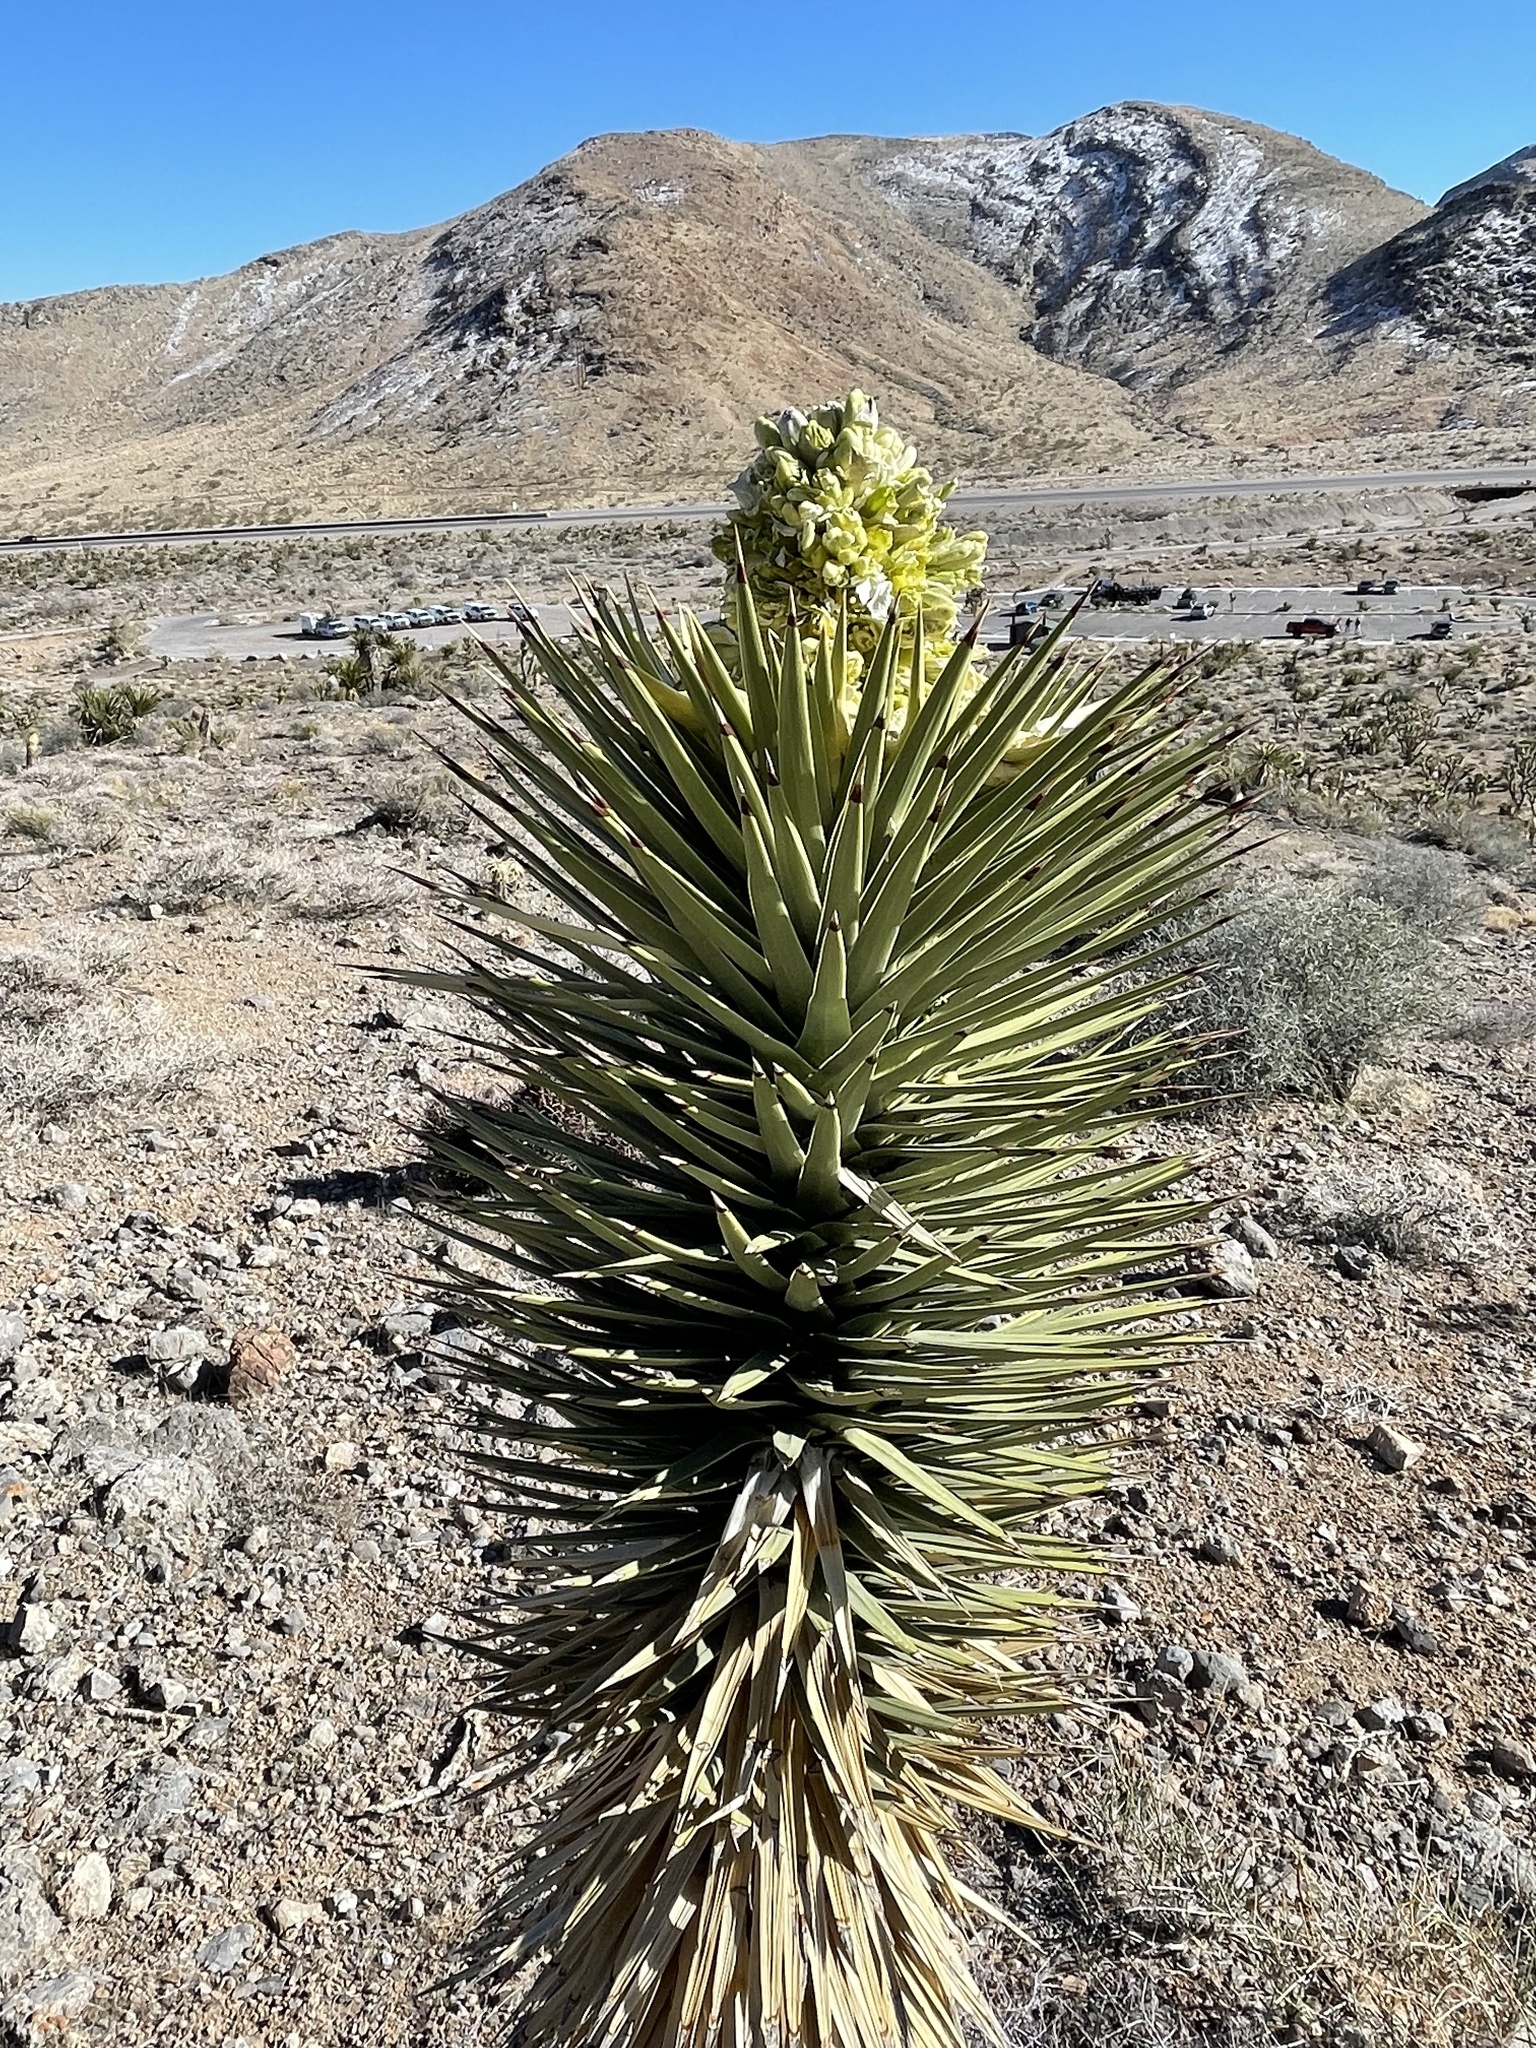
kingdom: Plantae
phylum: Tracheophyta
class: Liliopsida
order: Asparagales
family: Asparagaceae
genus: Yucca
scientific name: Yucca brevifolia
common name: Joshua tree
